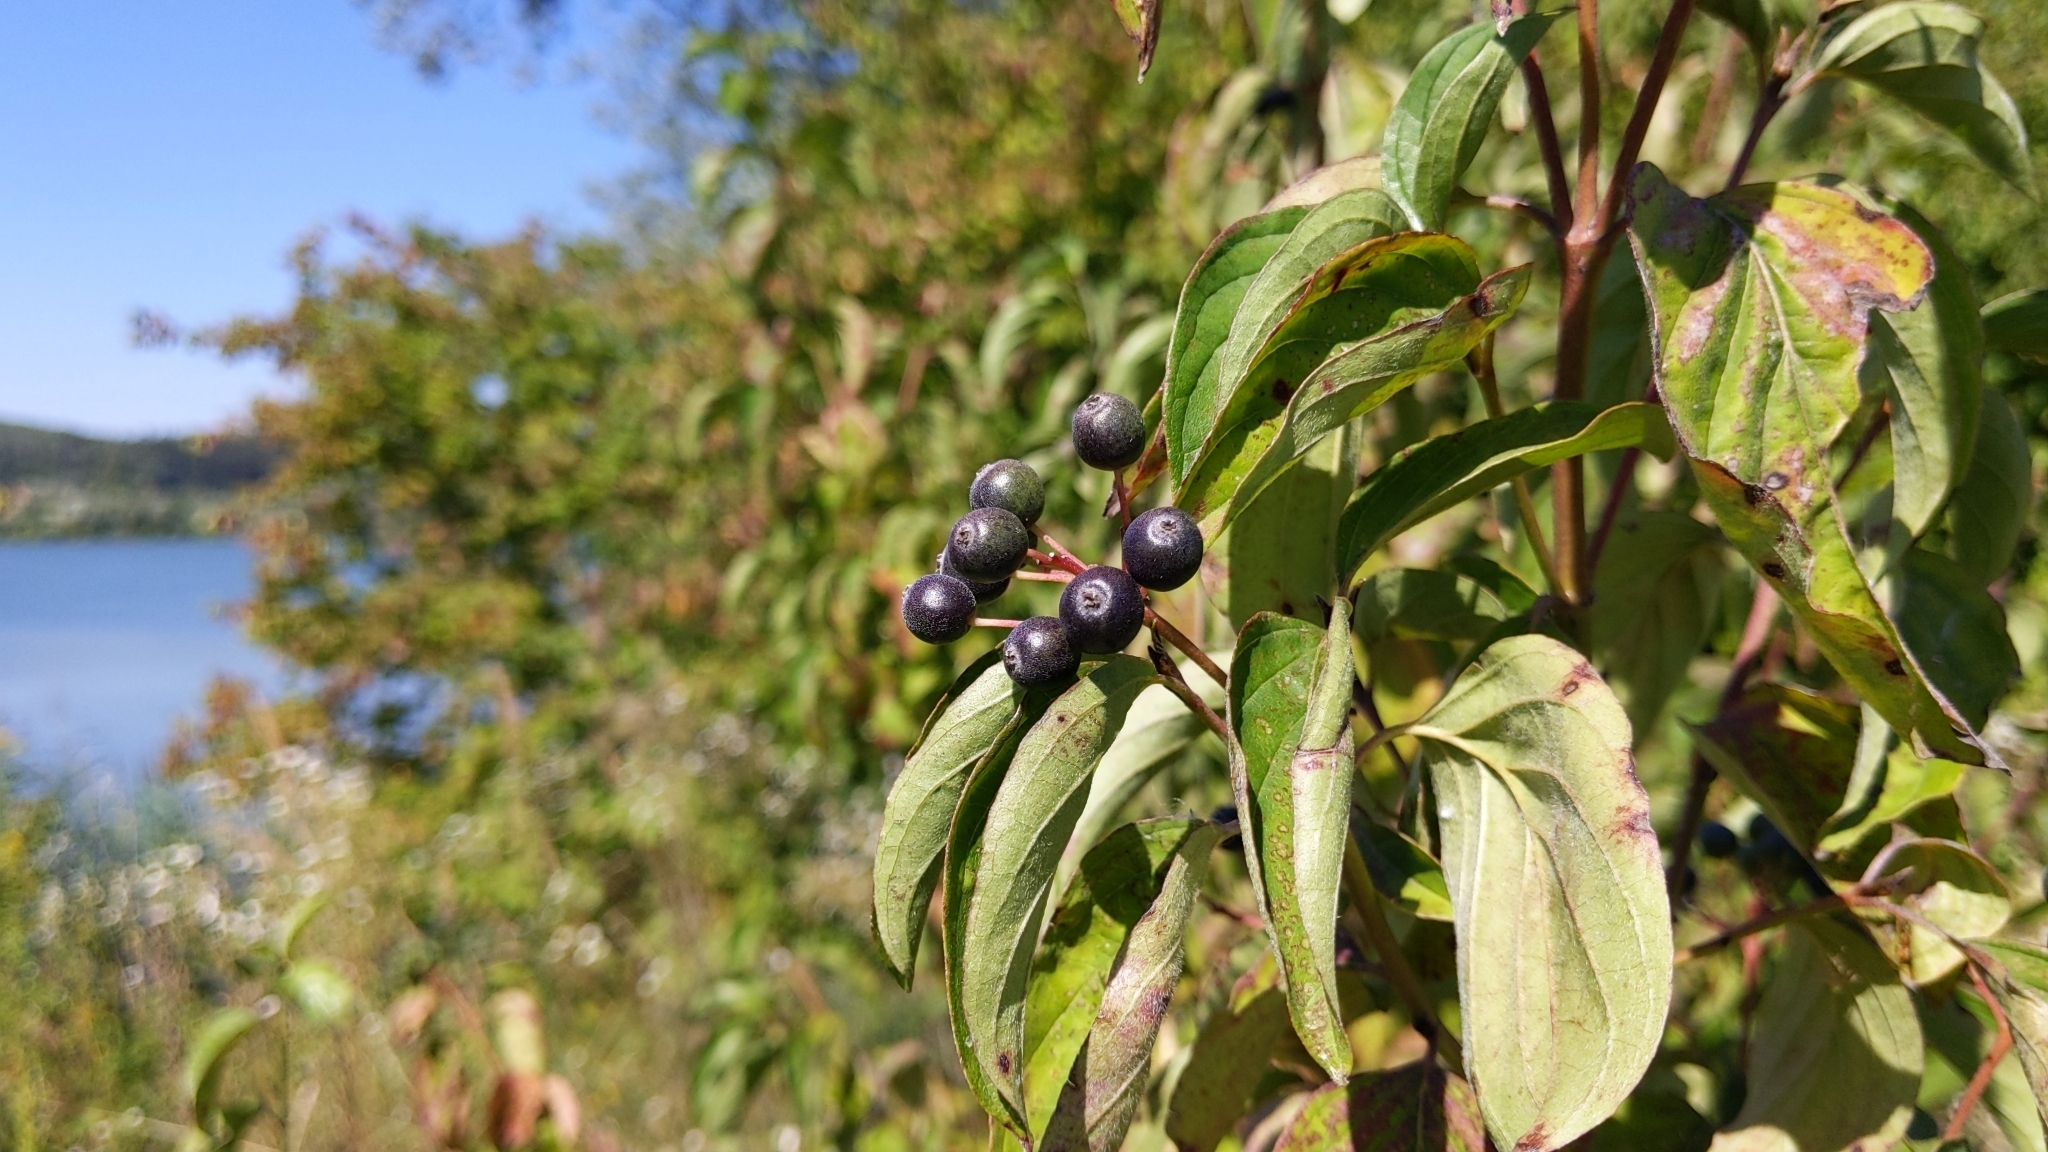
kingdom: Plantae
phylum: Tracheophyta
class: Magnoliopsida
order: Cornales
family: Cornaceae
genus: Cornus
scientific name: Cornus sanguinea
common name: Dogwood
